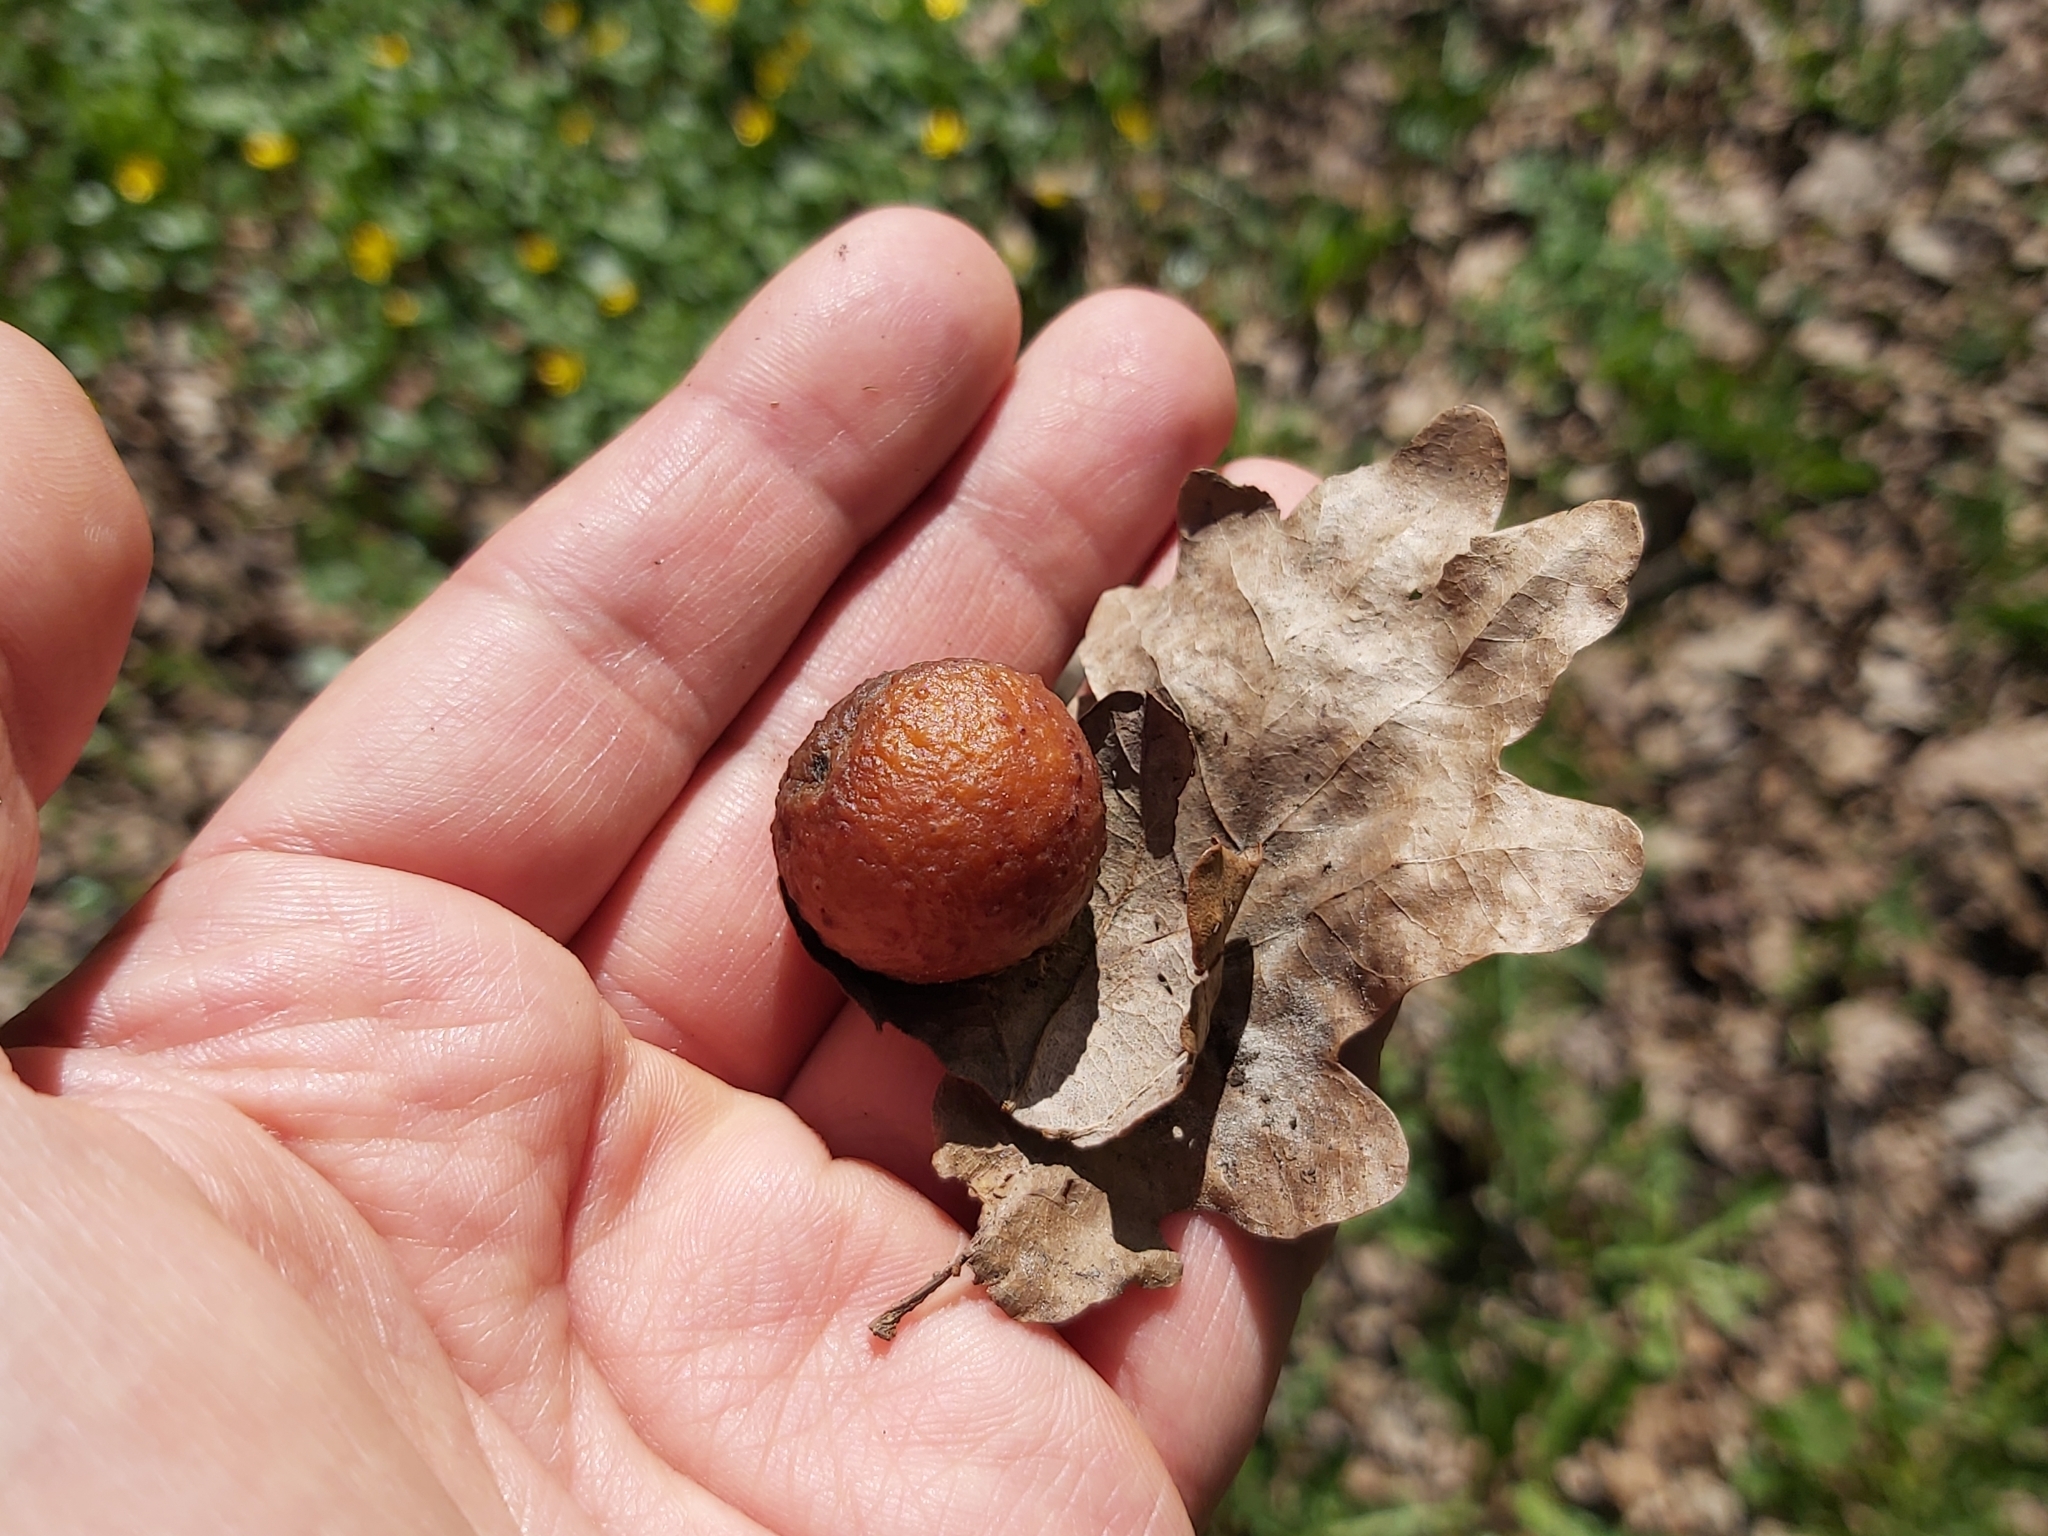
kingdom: Animalia
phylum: Arthropoda
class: Insecta
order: Hymenoptera
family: Cynipidae
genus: Cynips
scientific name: Cynips quercusfolii
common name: Cherry gall
